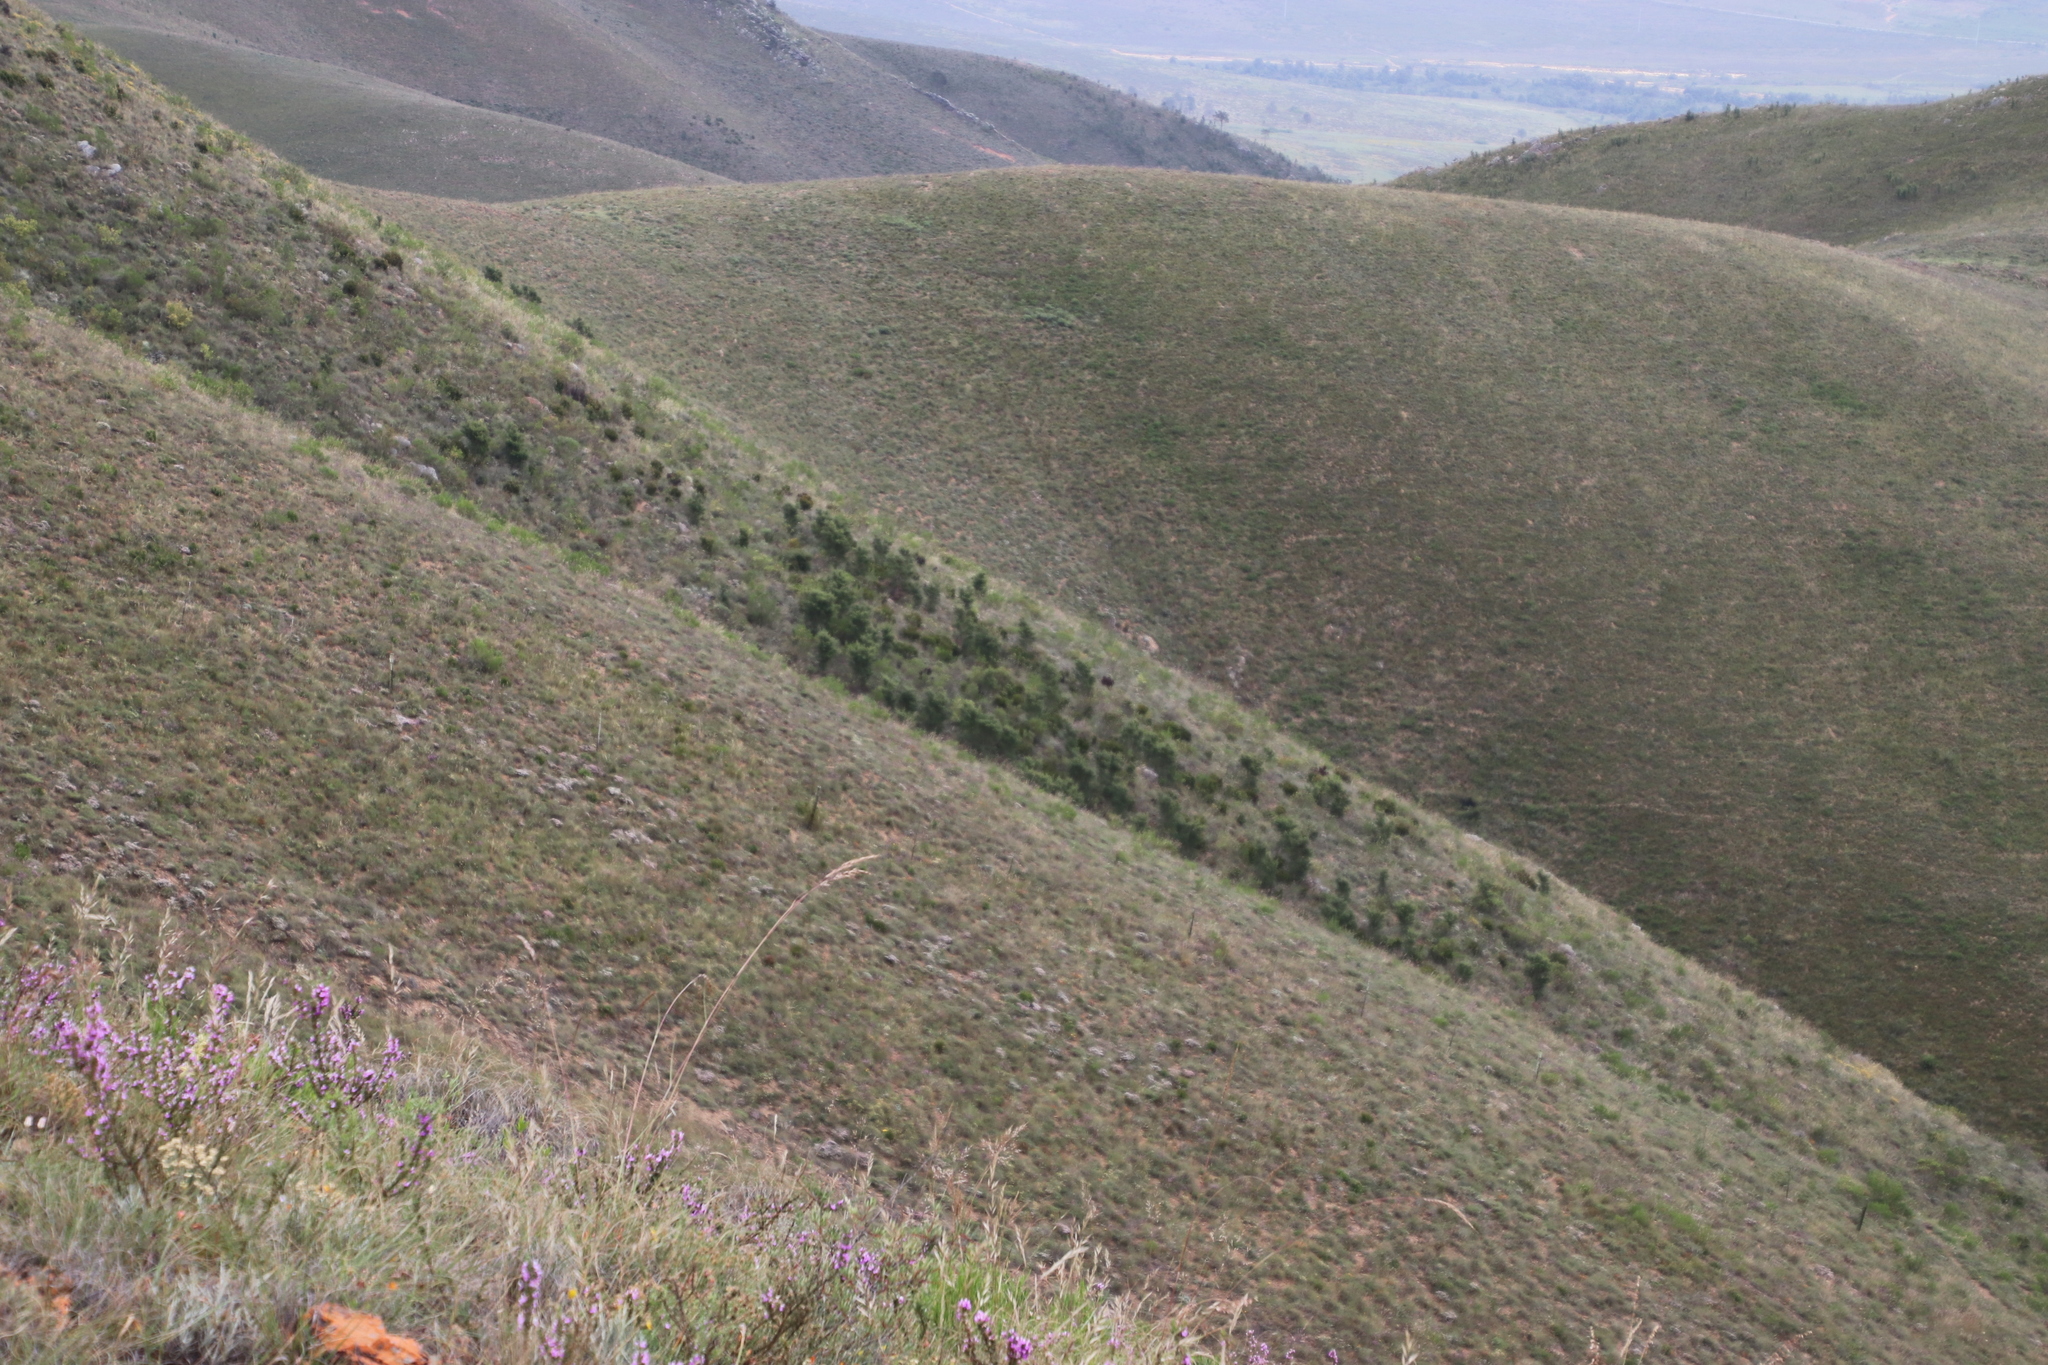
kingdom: Plantae
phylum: Tracheophyta
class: Magnoliopsida
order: Proteales
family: Proteaceae
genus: Hakea
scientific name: Hakea sericea
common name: Needle bush
